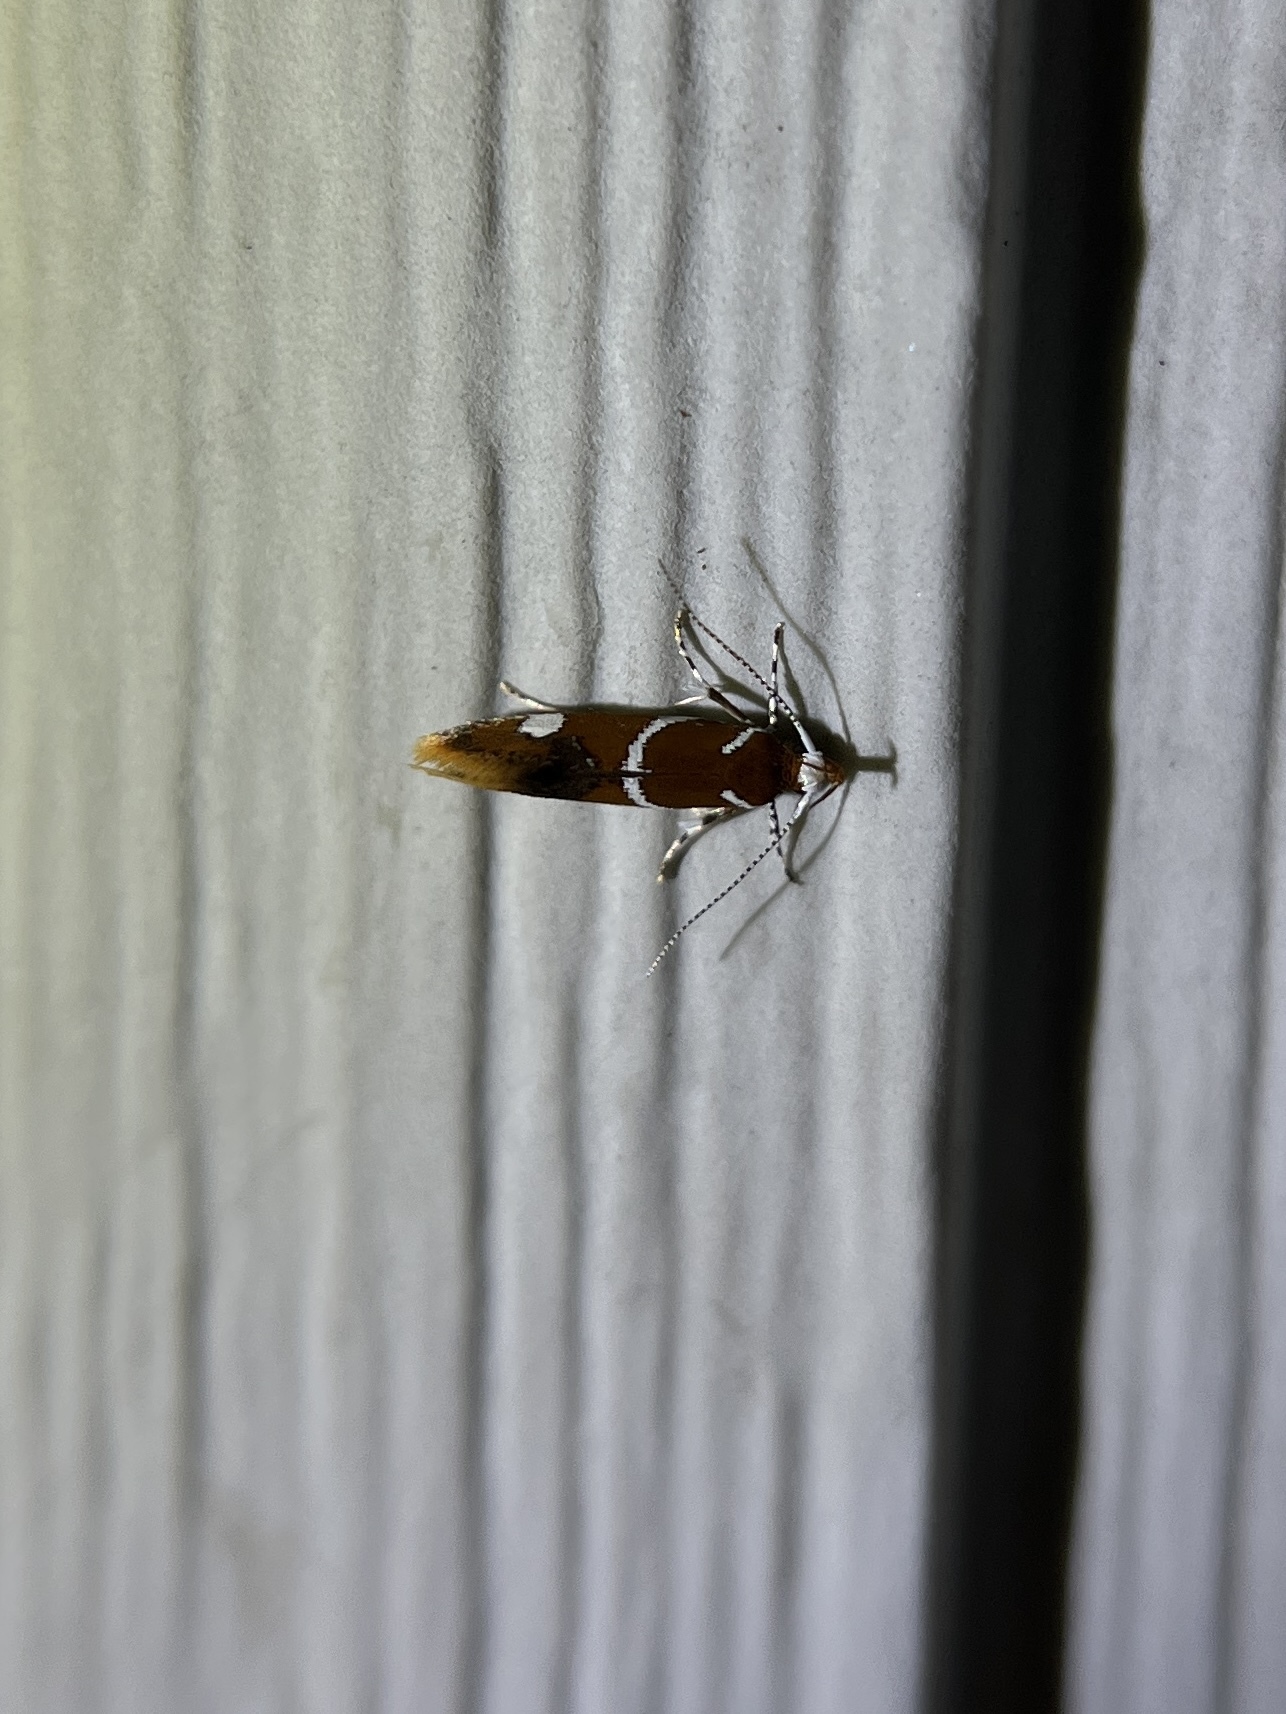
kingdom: Animalia
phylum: Arthropoda
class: Insecta
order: Lepidoptera
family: Oecophoridae
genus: Promalactis
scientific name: Promalactis suzukiella
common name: Moth
